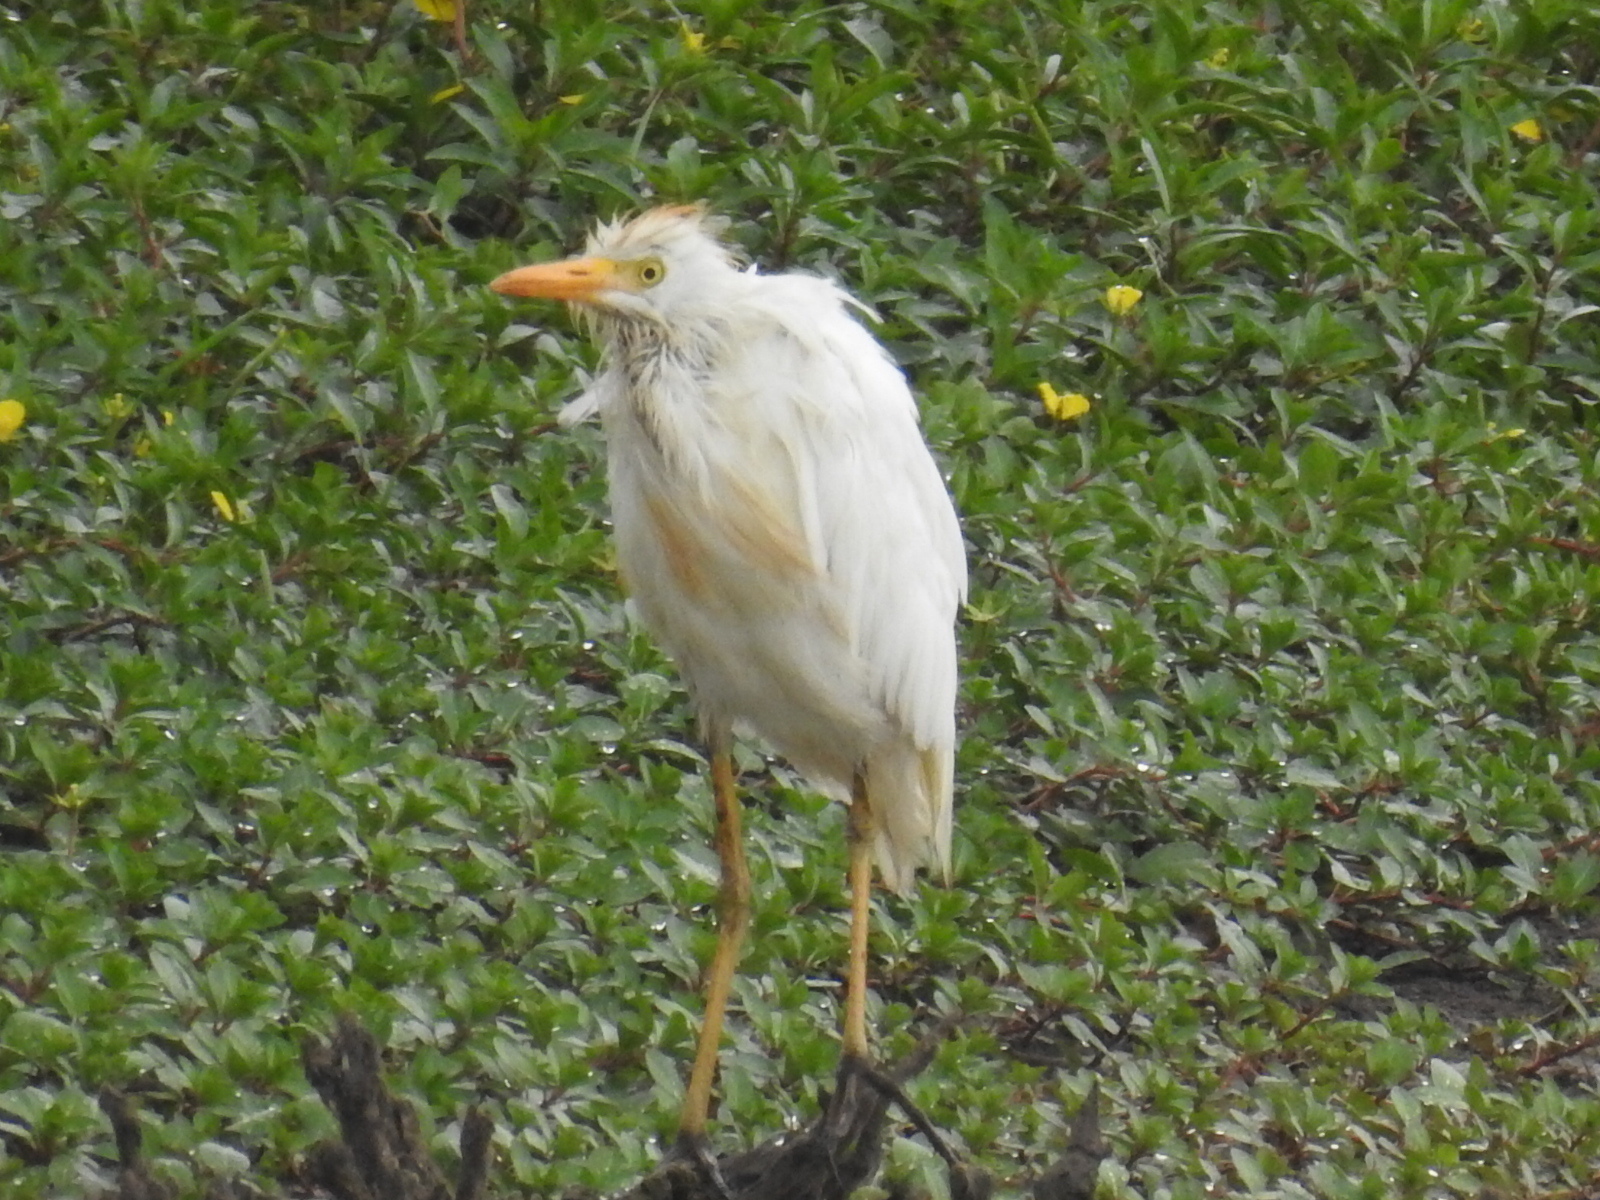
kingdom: Animalia
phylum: Chordata
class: Aves
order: Pelecaniformes
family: Ardeidae
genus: Bubulcus
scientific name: Bubulcus ibis
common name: Cattle egret
